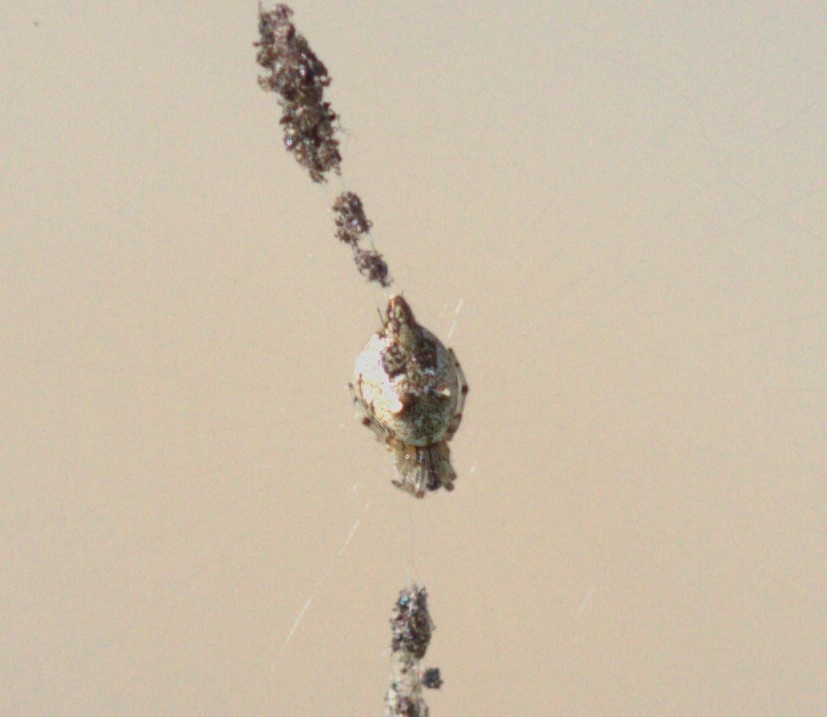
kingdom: Animalia
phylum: Arthropoda
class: Arachnida
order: Araneae
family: Araneidae
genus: Cyclosa
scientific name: Cyclosa turbinata
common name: Orb weavers
